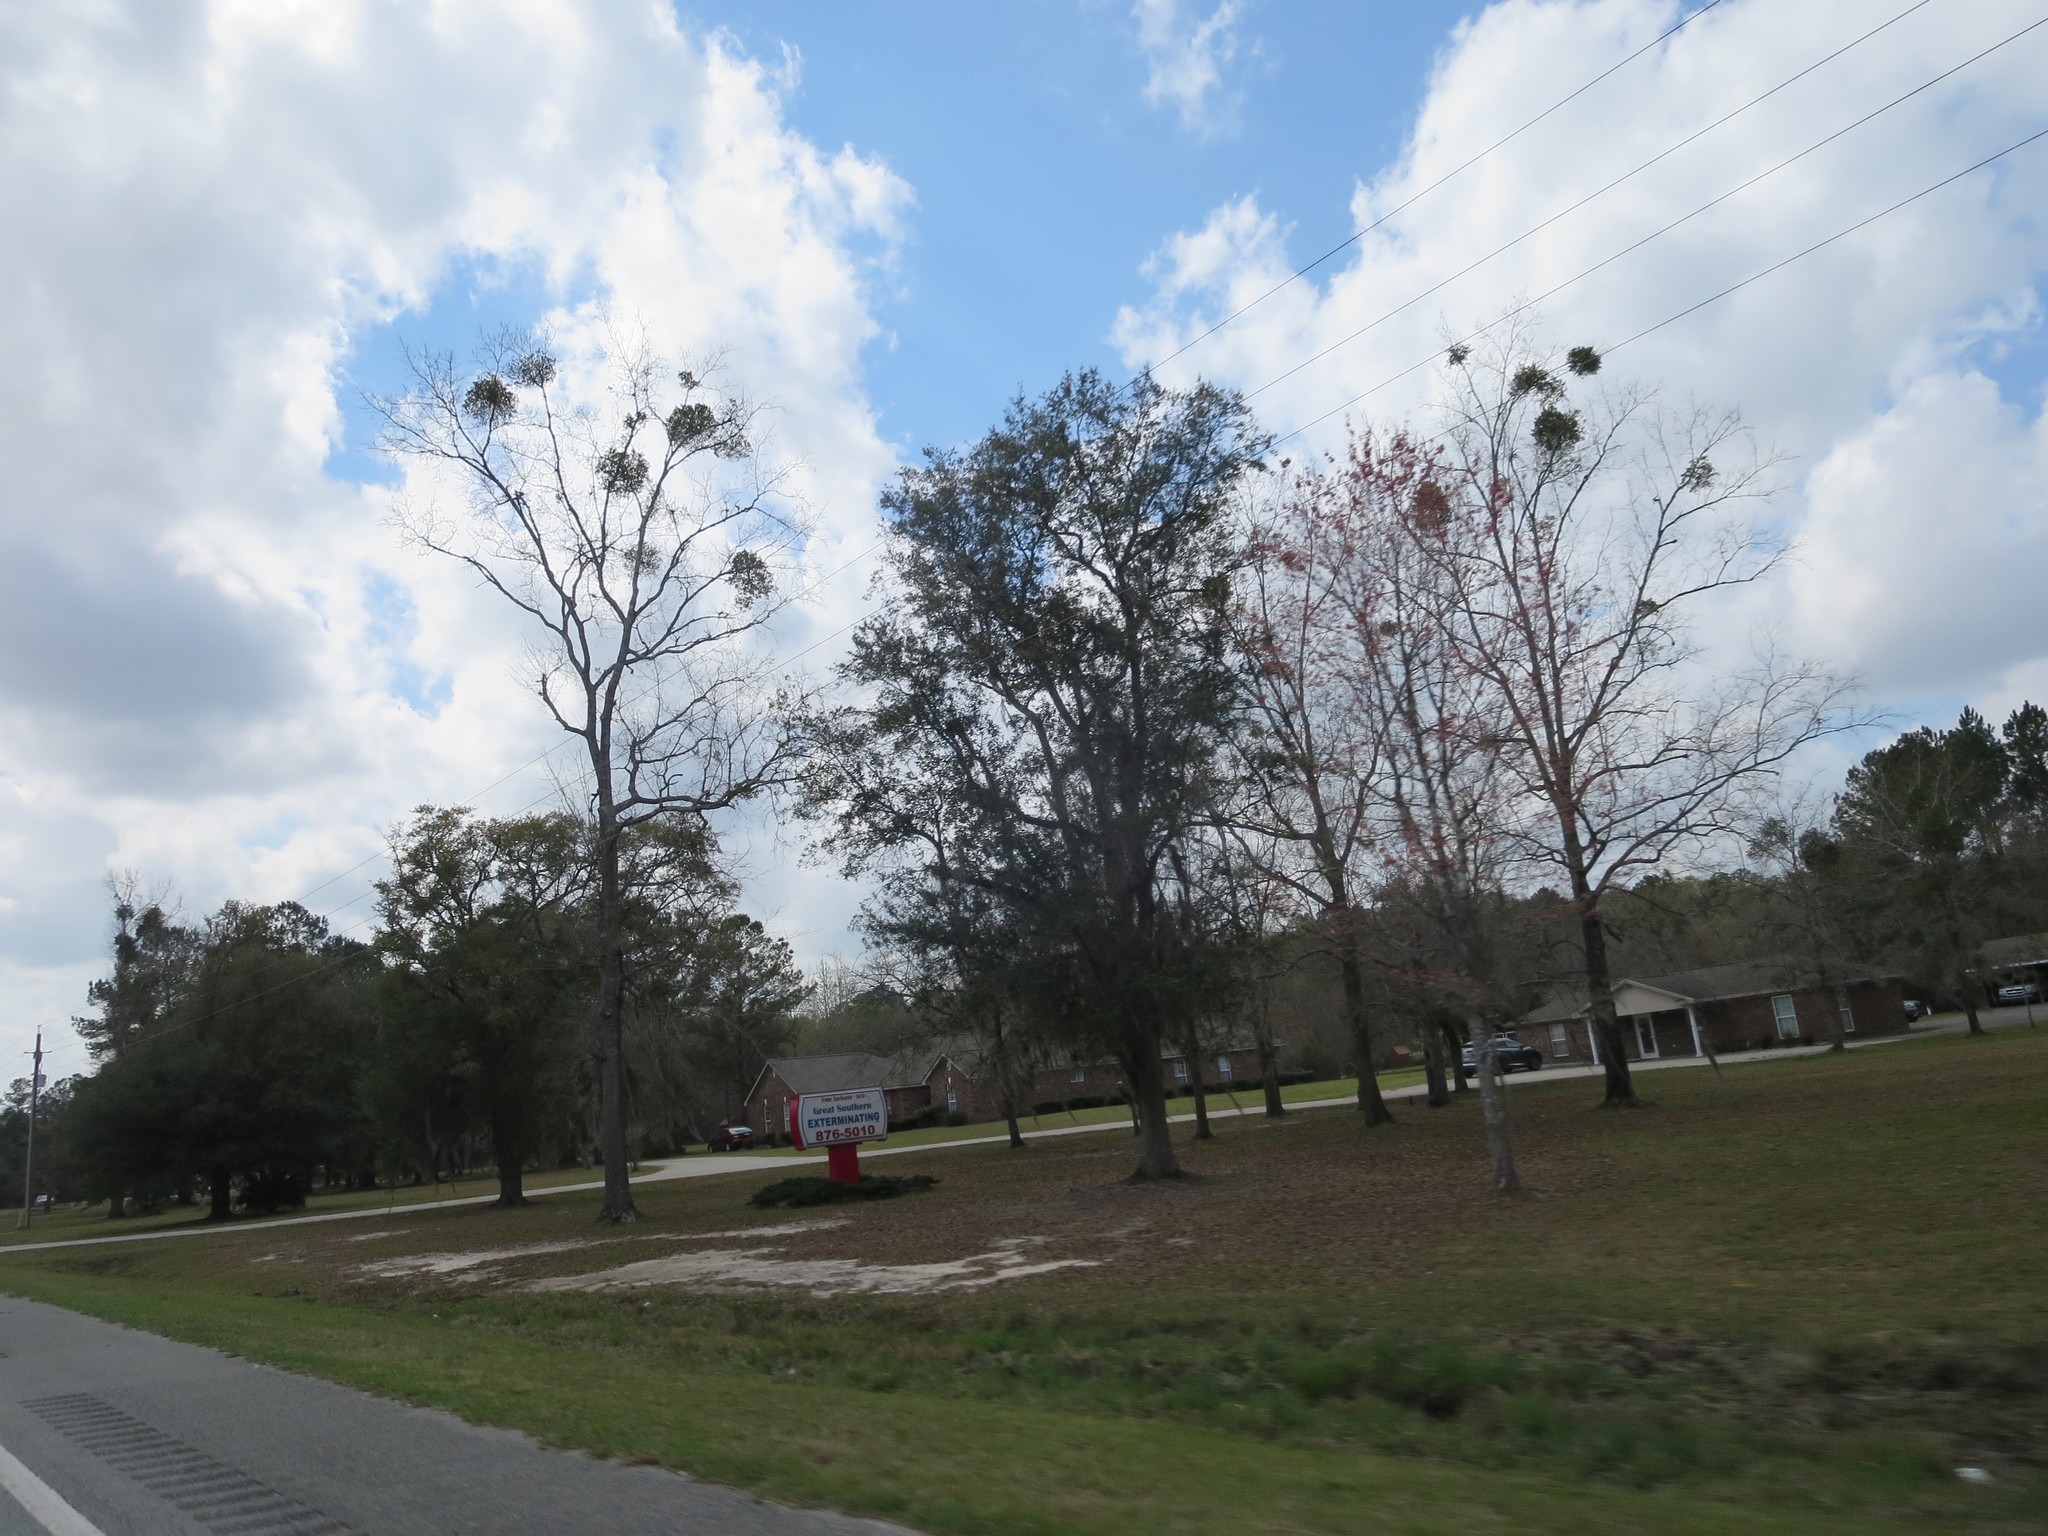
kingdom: Plantae
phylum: Tracheophyta
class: Magnoliopsida
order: Santalales
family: Viscaceae
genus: Phoradendron
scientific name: Phoradendron leucarpum
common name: Pacific mistletoe
